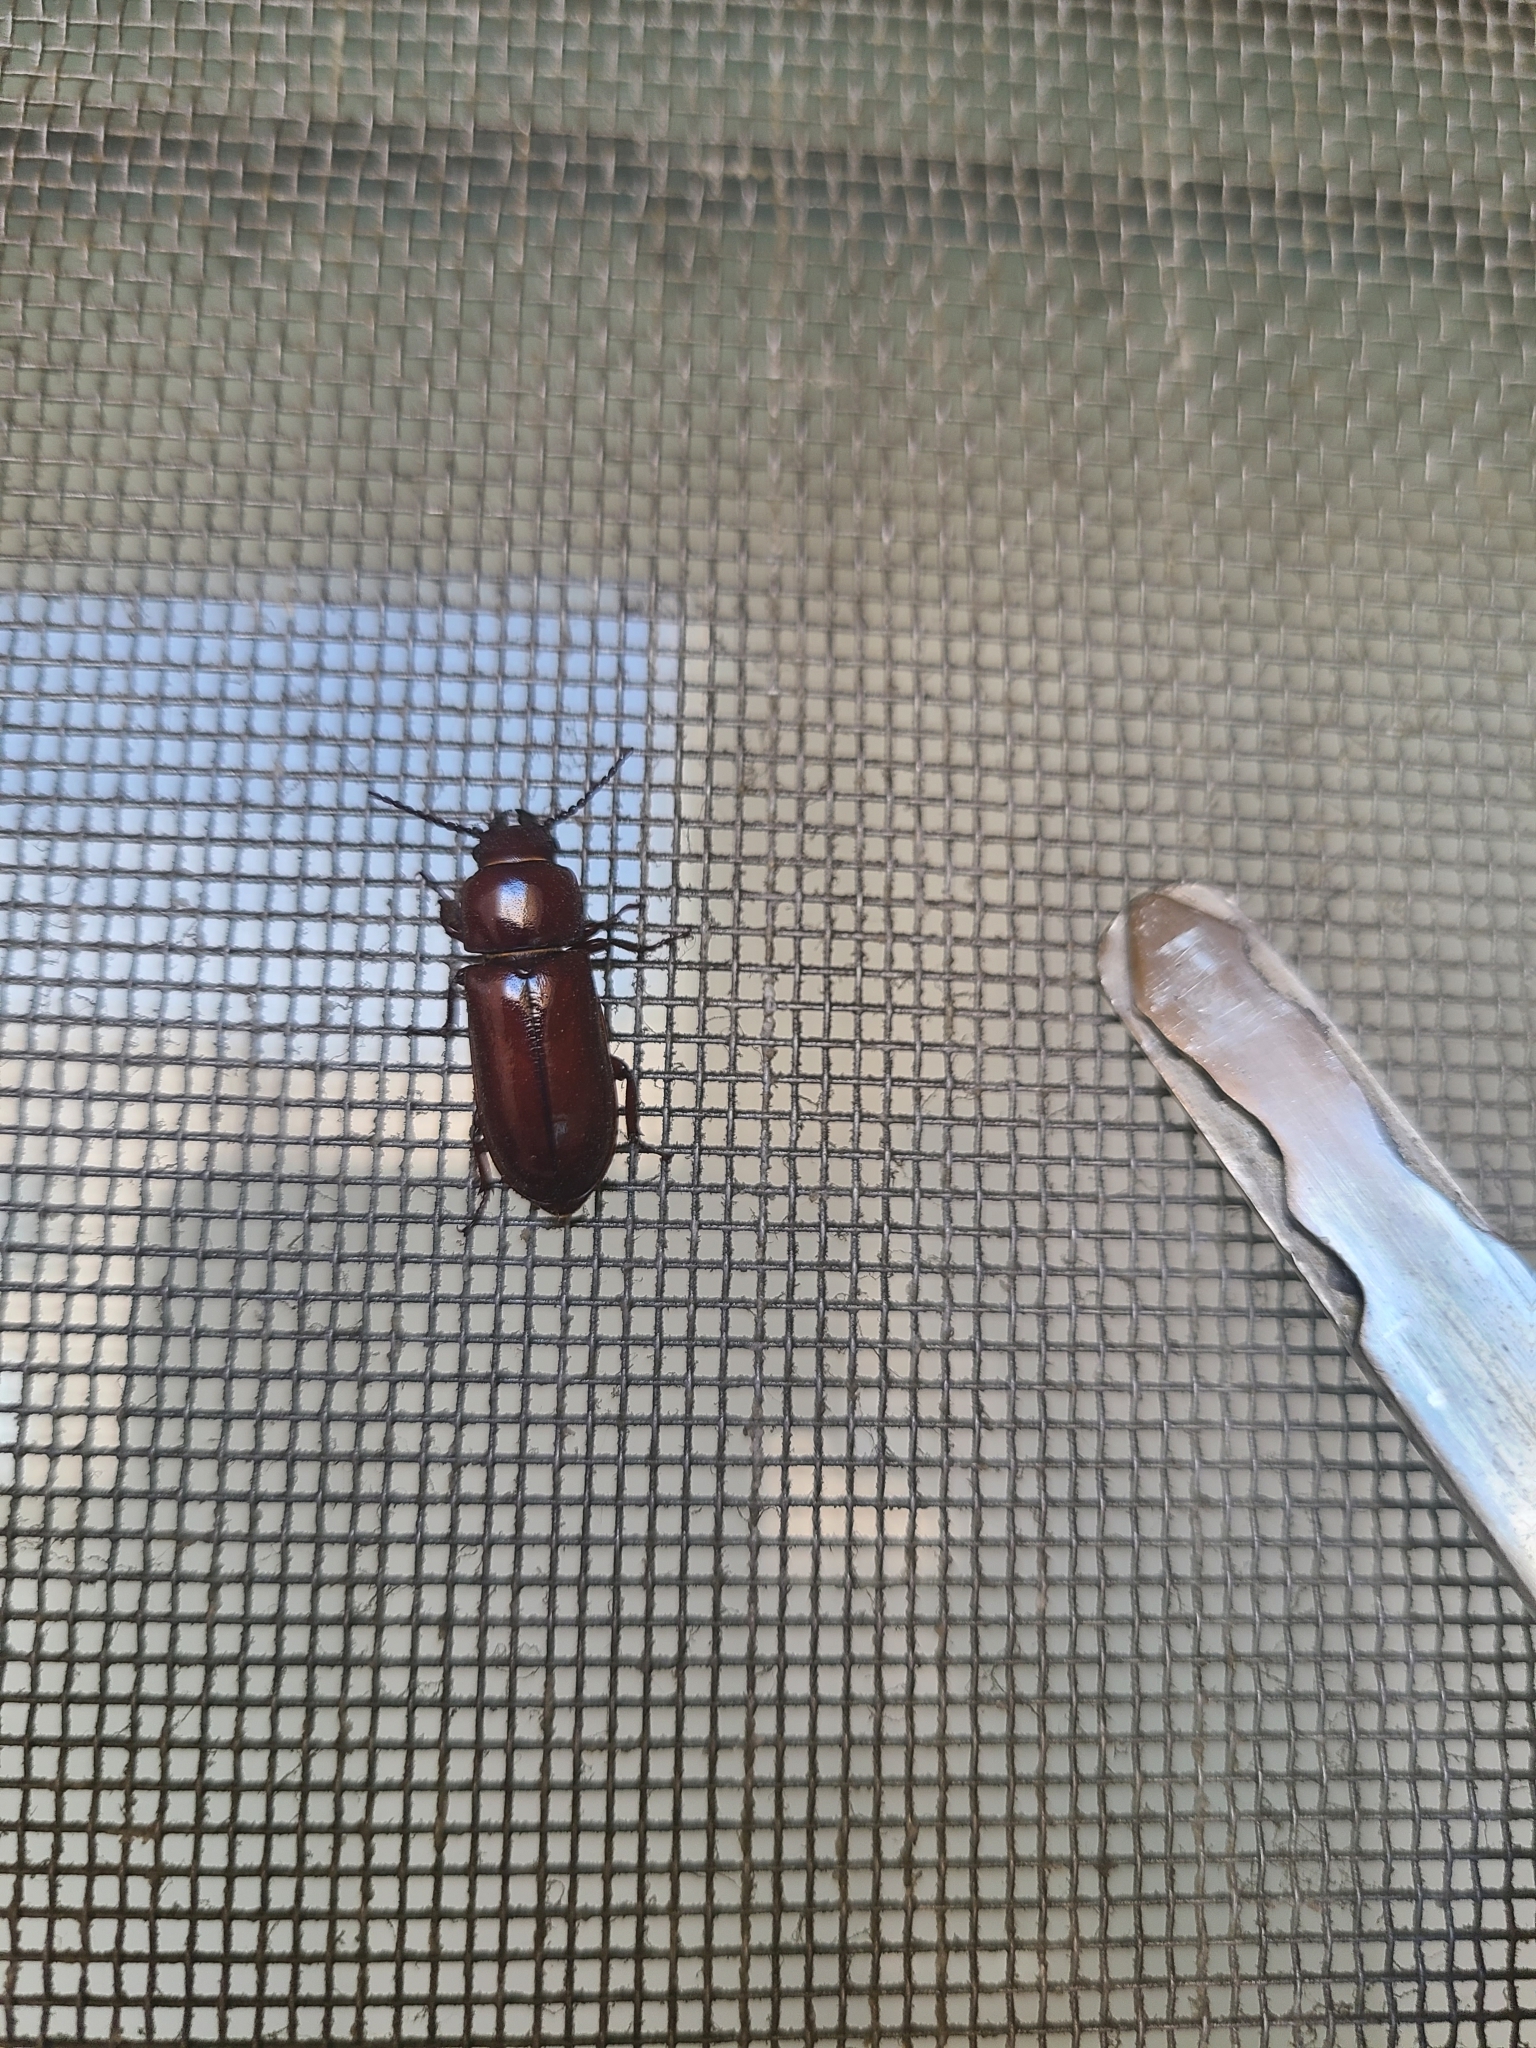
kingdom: Animalia
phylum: Arthropoda
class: Insecta
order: Coleoptera
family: Cerambycidae
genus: Neandra
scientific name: Neandra brunnea
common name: Pole borer
